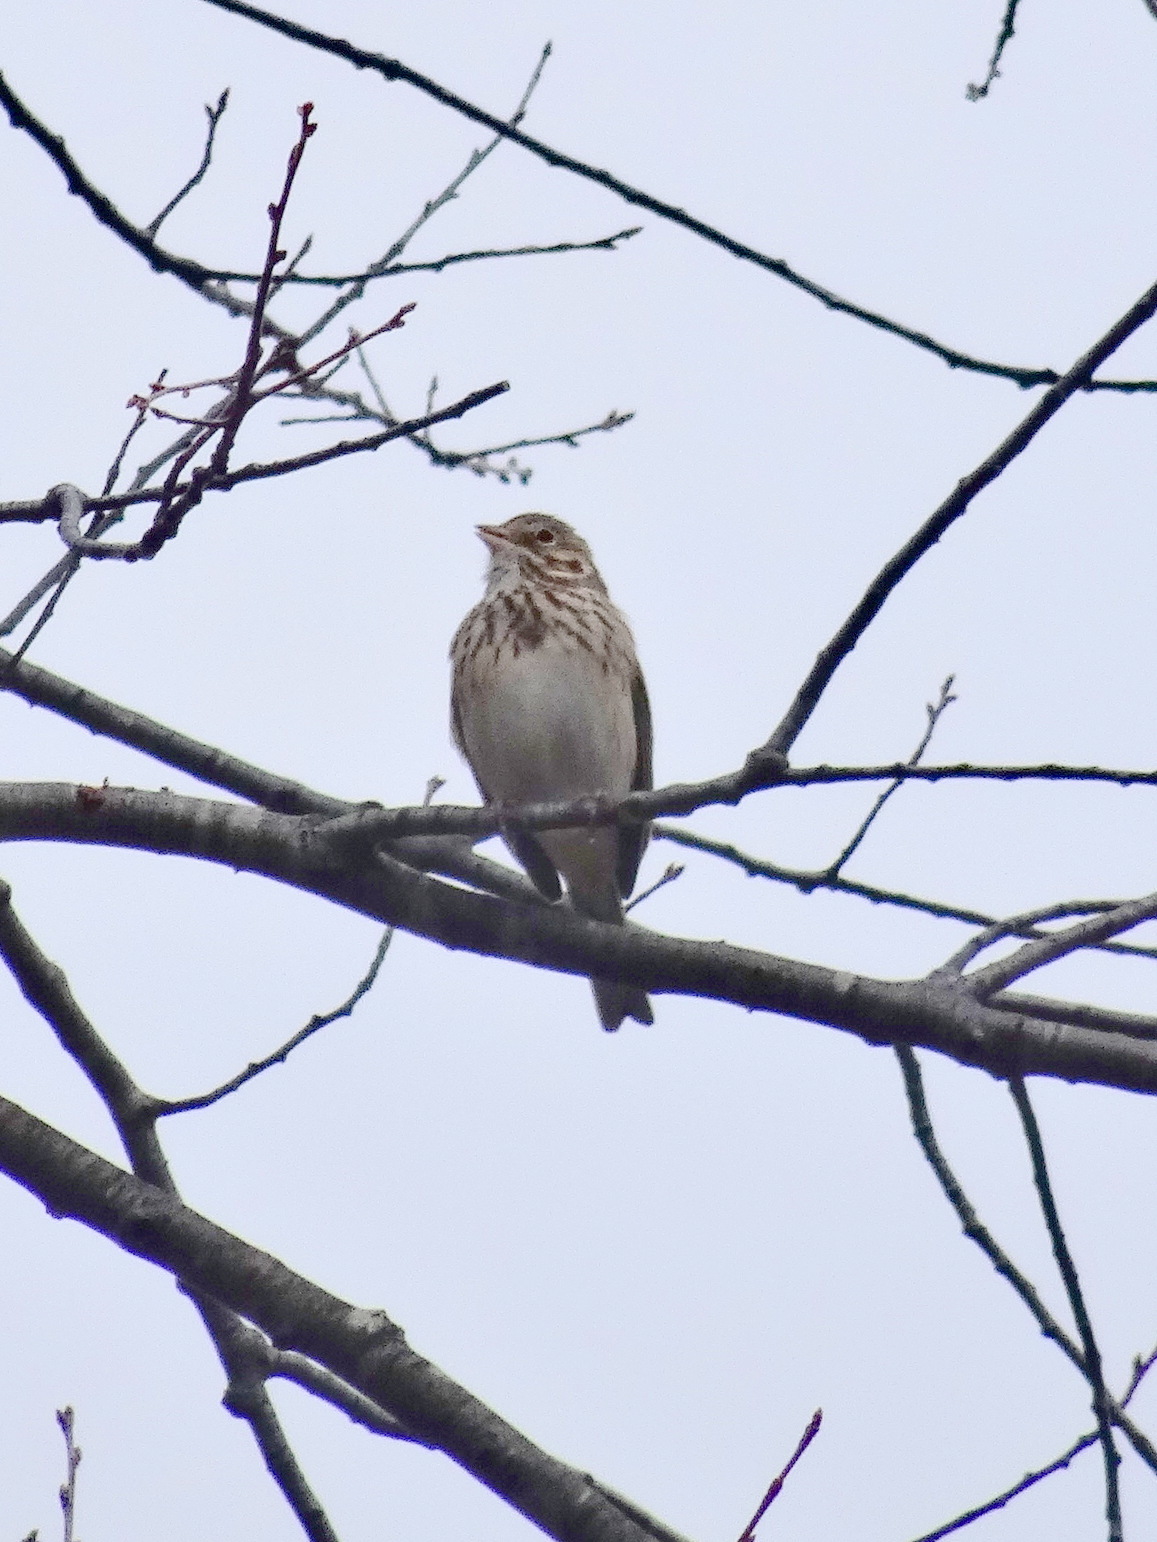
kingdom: Animalia
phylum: Chordata
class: Aves
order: Passeriformes
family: Passerellidae
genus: Pooecetes
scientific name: Pooecetes gramineus
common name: Vesper sparrow
